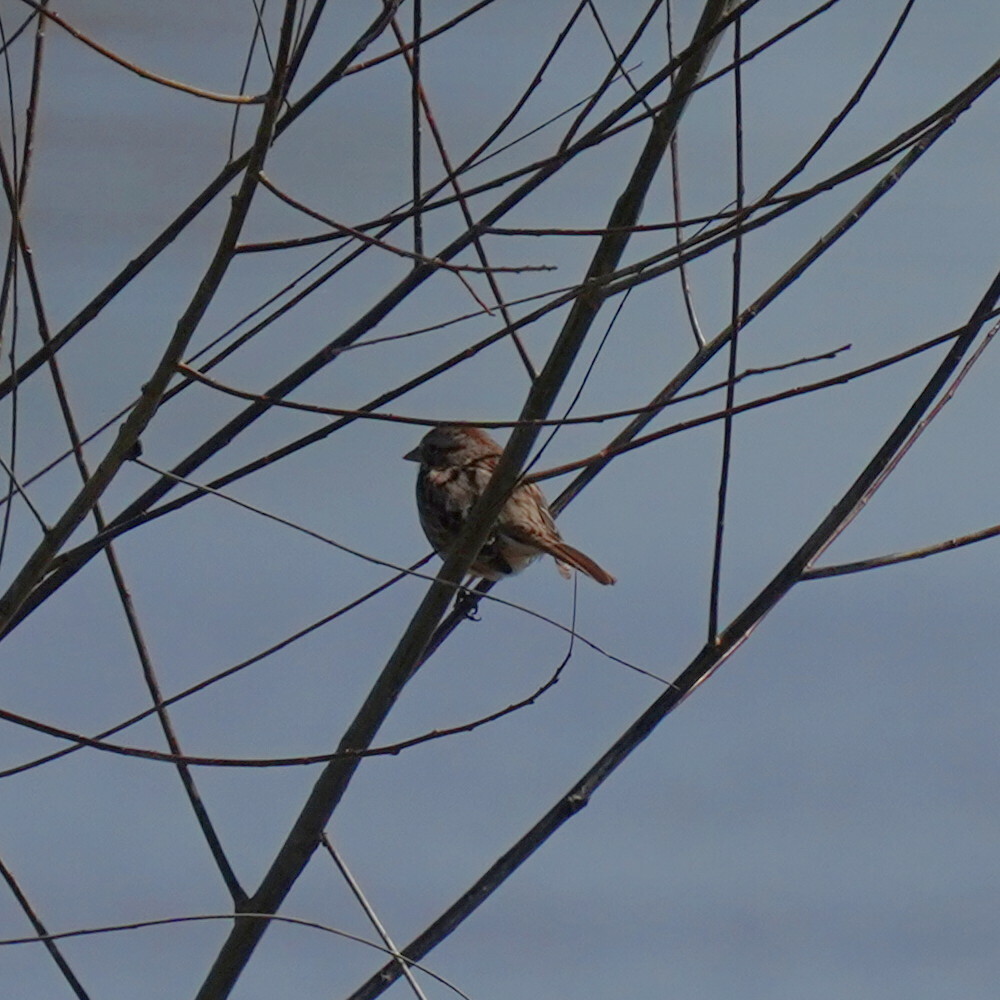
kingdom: Animalia
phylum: Chordata
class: Aves
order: Passeriformes
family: Passerellidae
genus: Melospiza
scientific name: Melospiza melodia
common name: Song sparrow
